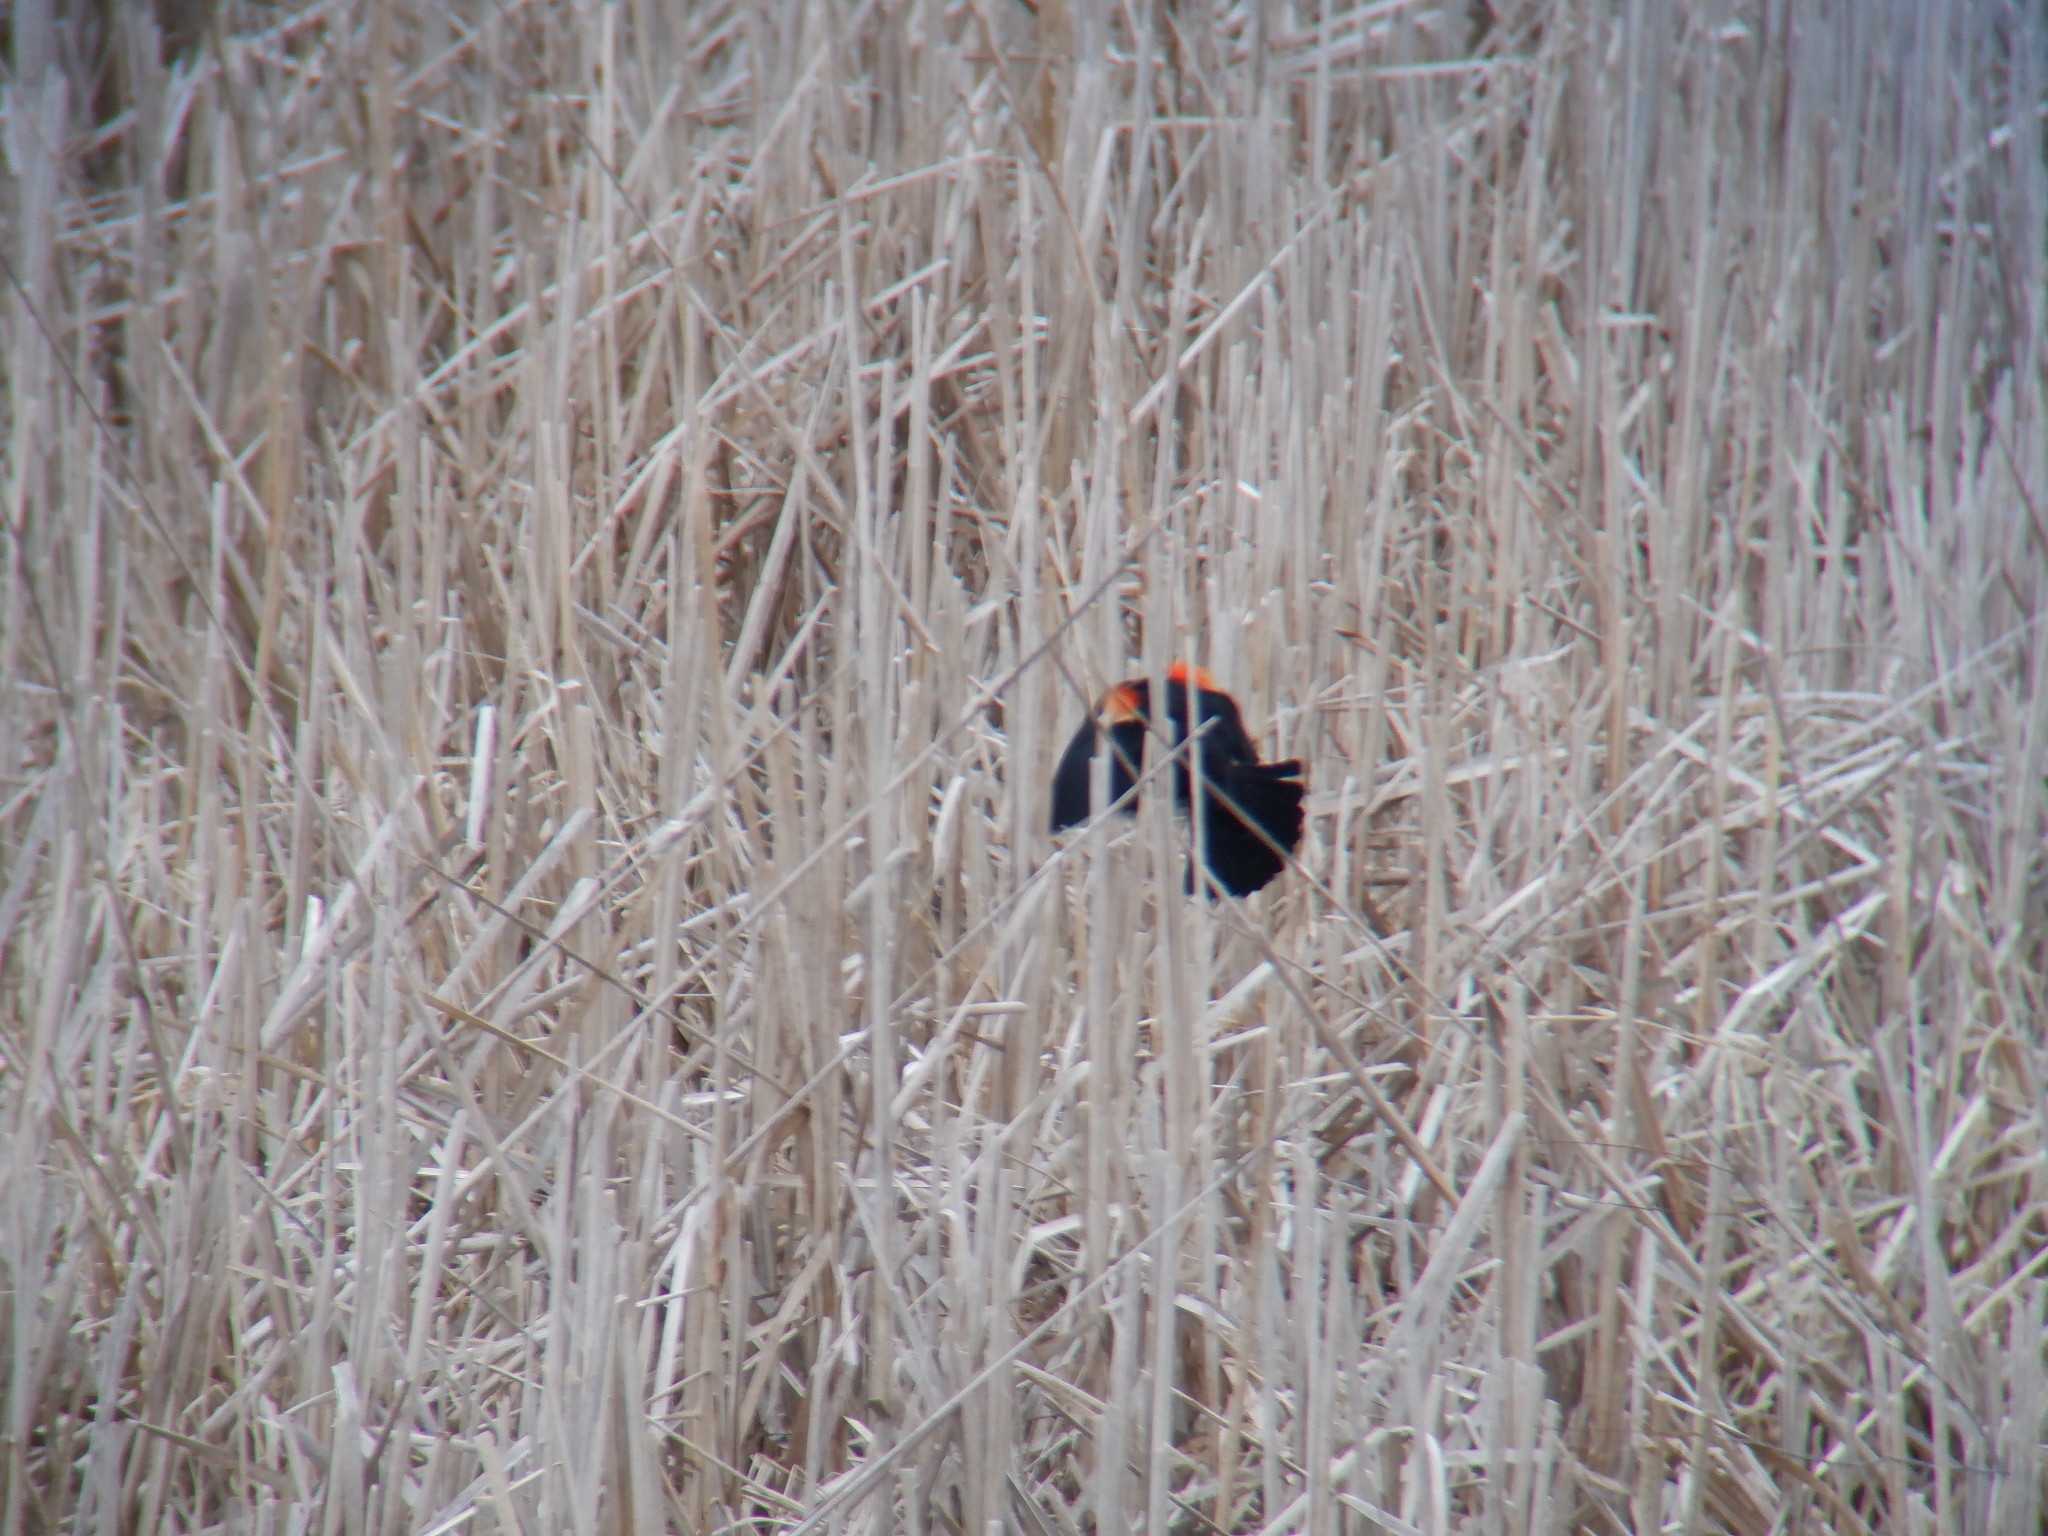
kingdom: Animalia
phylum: Chordata
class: Aves
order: Passeriformes
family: Icteridae
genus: Agelaius
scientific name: Agelaius phoeniceus
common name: Red-winged blackbird
